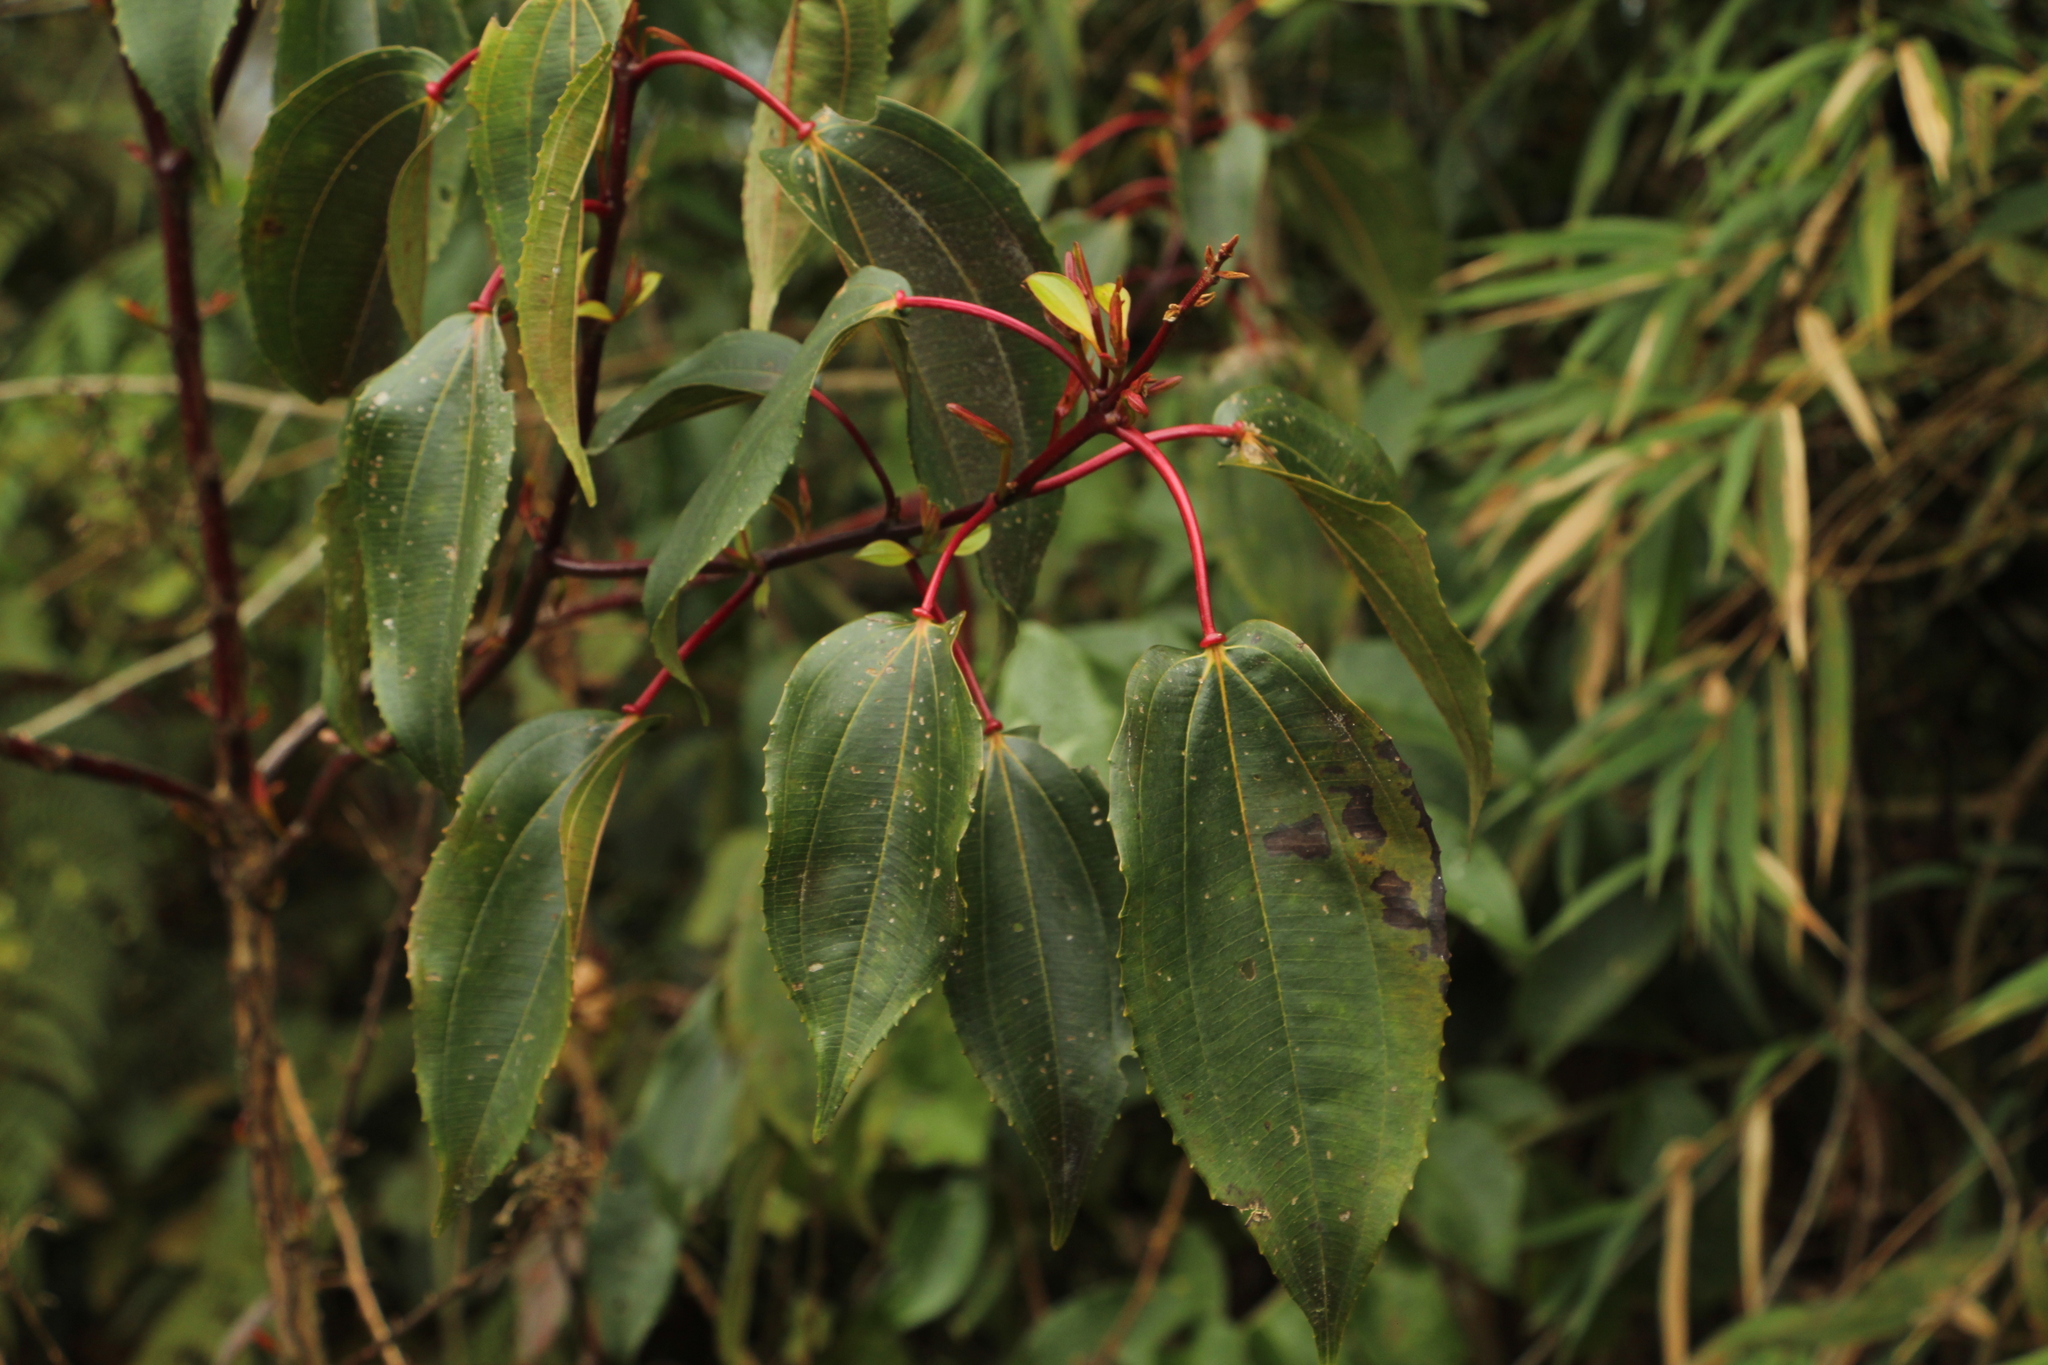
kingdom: Plantae
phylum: Tracheophyta
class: Magnoliopsida
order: Myrtales
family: Melastomataceae
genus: Axinaea
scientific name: Axinaea scutigera
